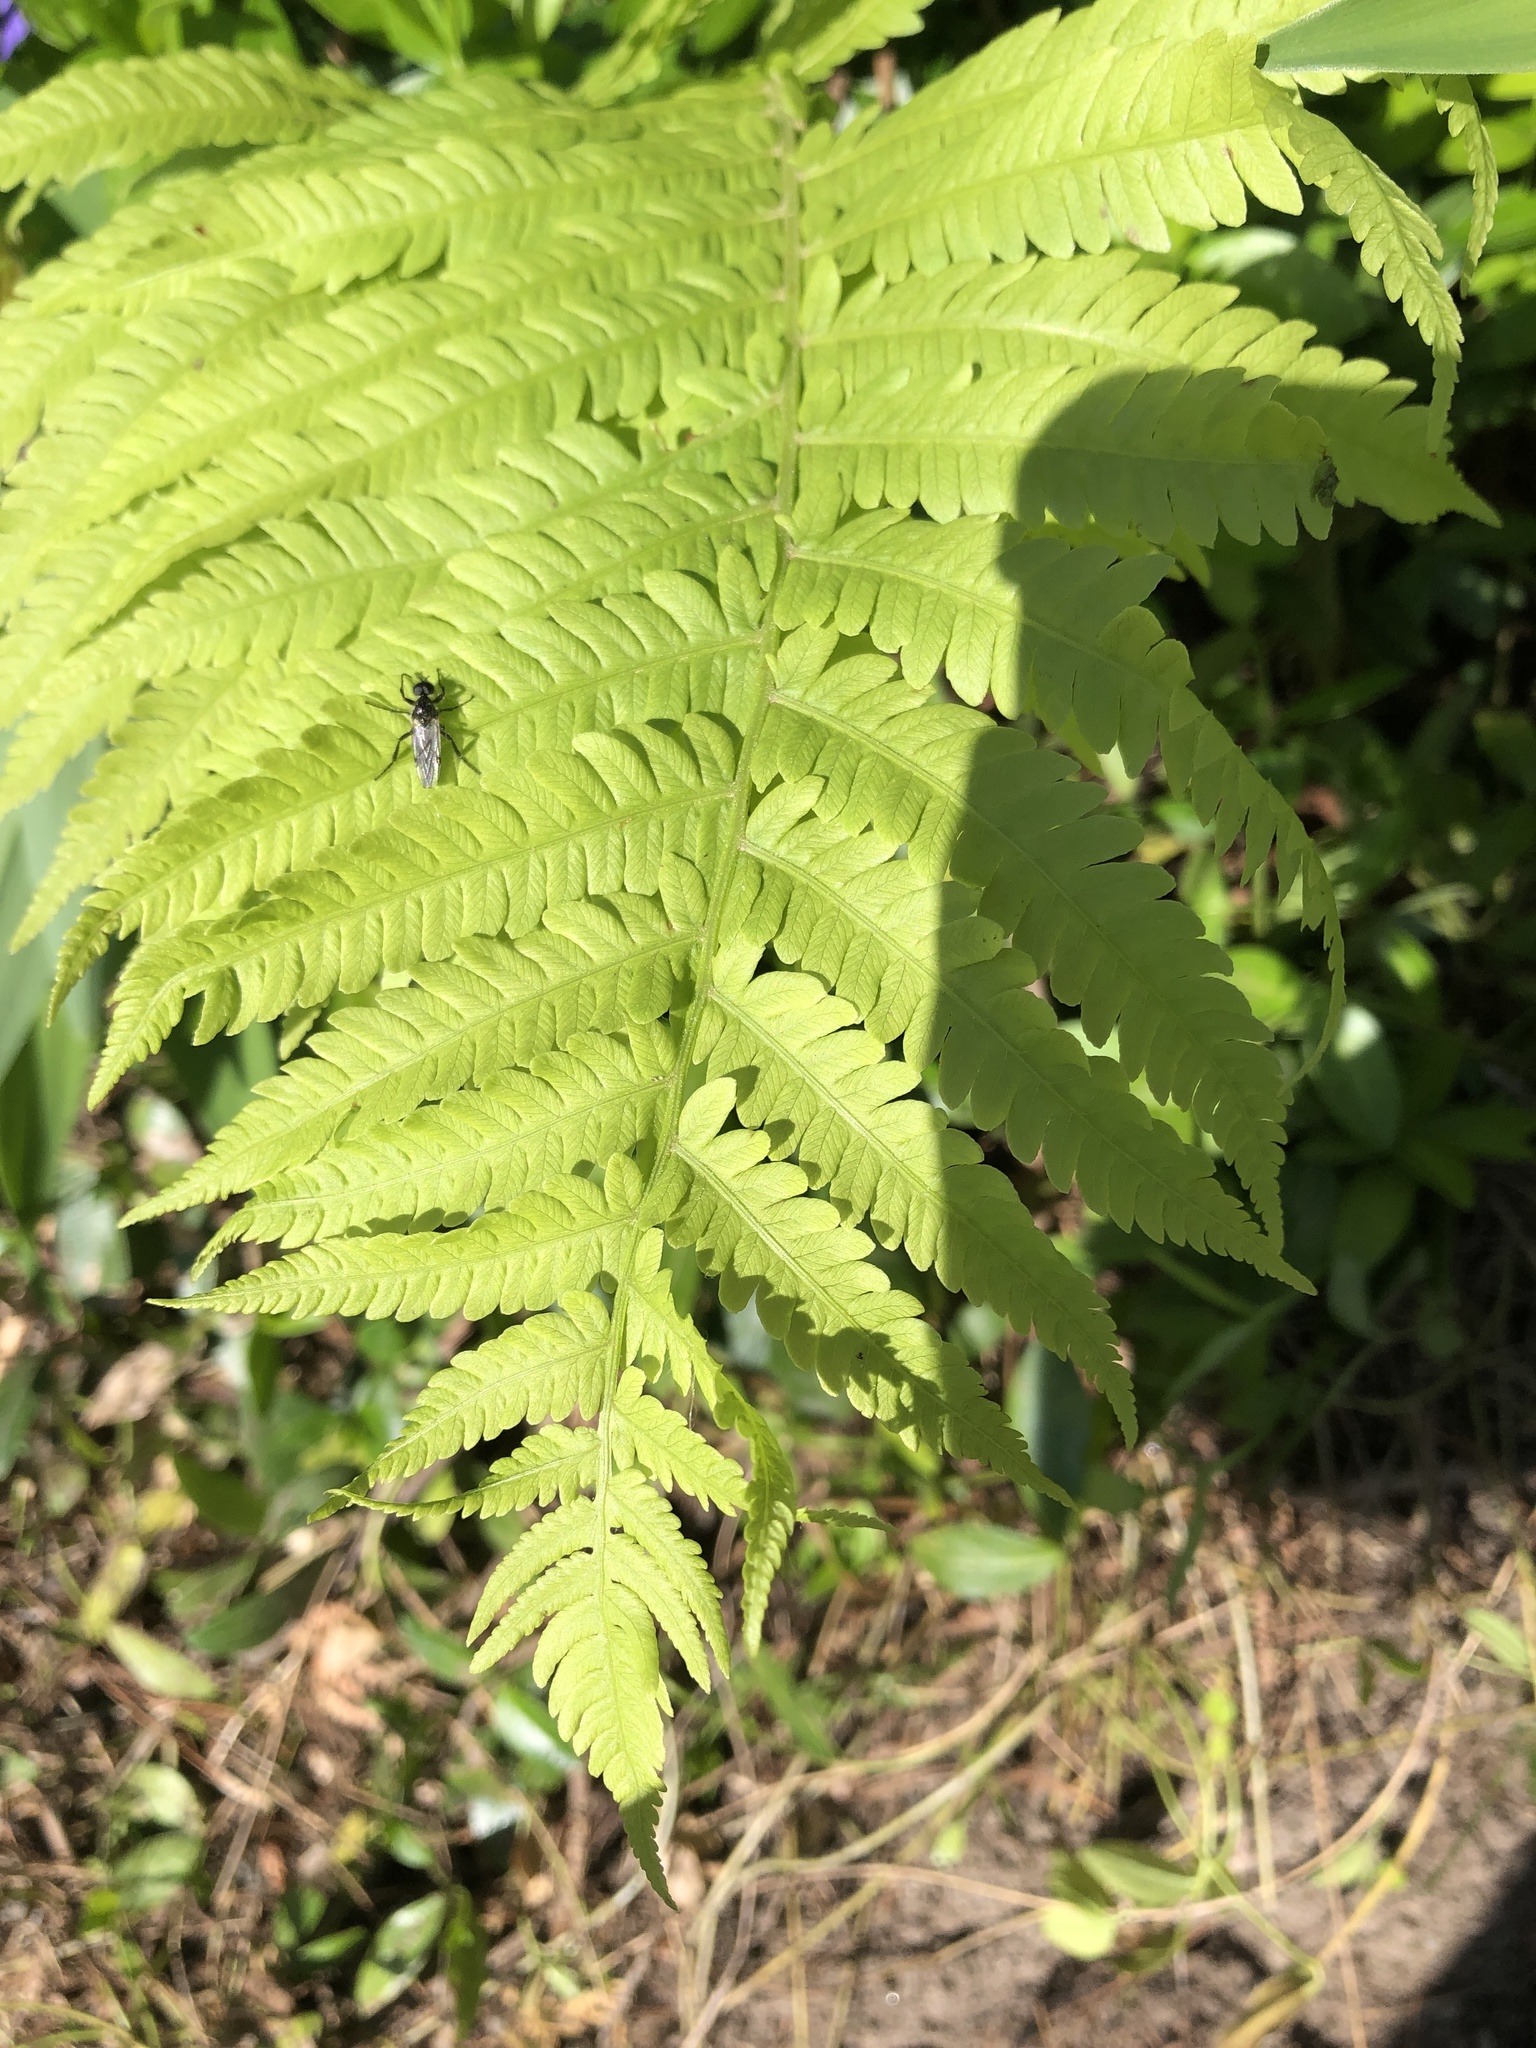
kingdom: Plantae
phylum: Tracheophyta
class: Polypodiopsida
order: Polypodiales
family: Onocleaceae
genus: Matteuccia
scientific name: Matteuccia struthiopteris
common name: Ostrich fern
